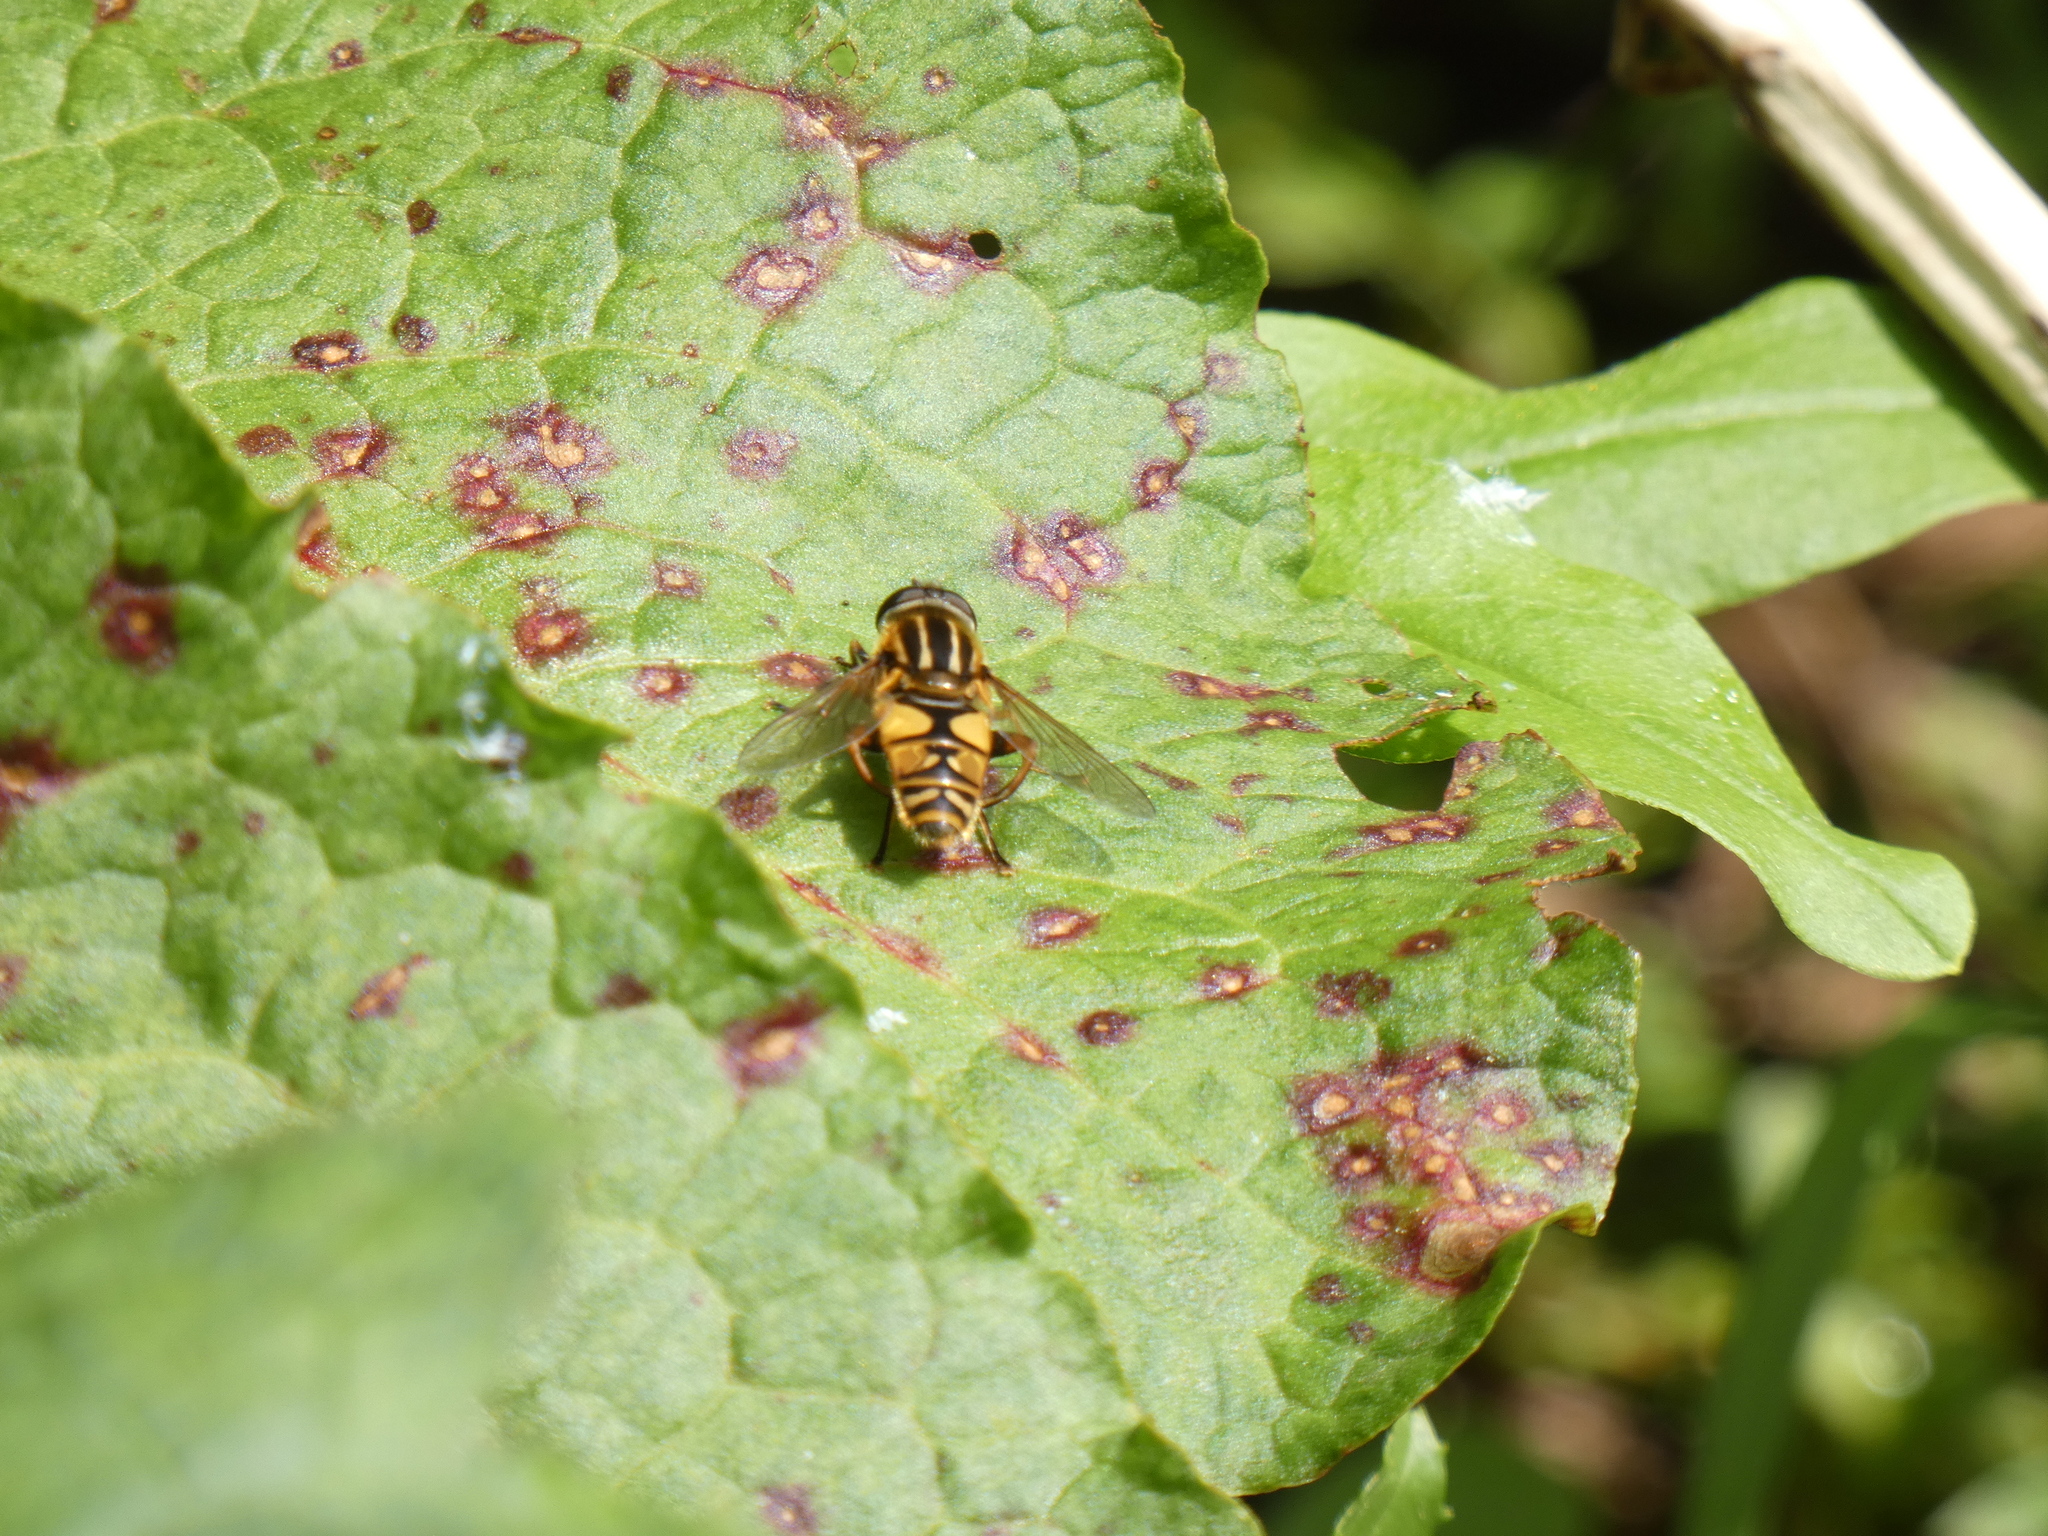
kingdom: Animalia
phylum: Arthropoda
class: Insecta
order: Diptera
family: Syrphidae
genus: Helophilus
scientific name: Helophilus pendulus
